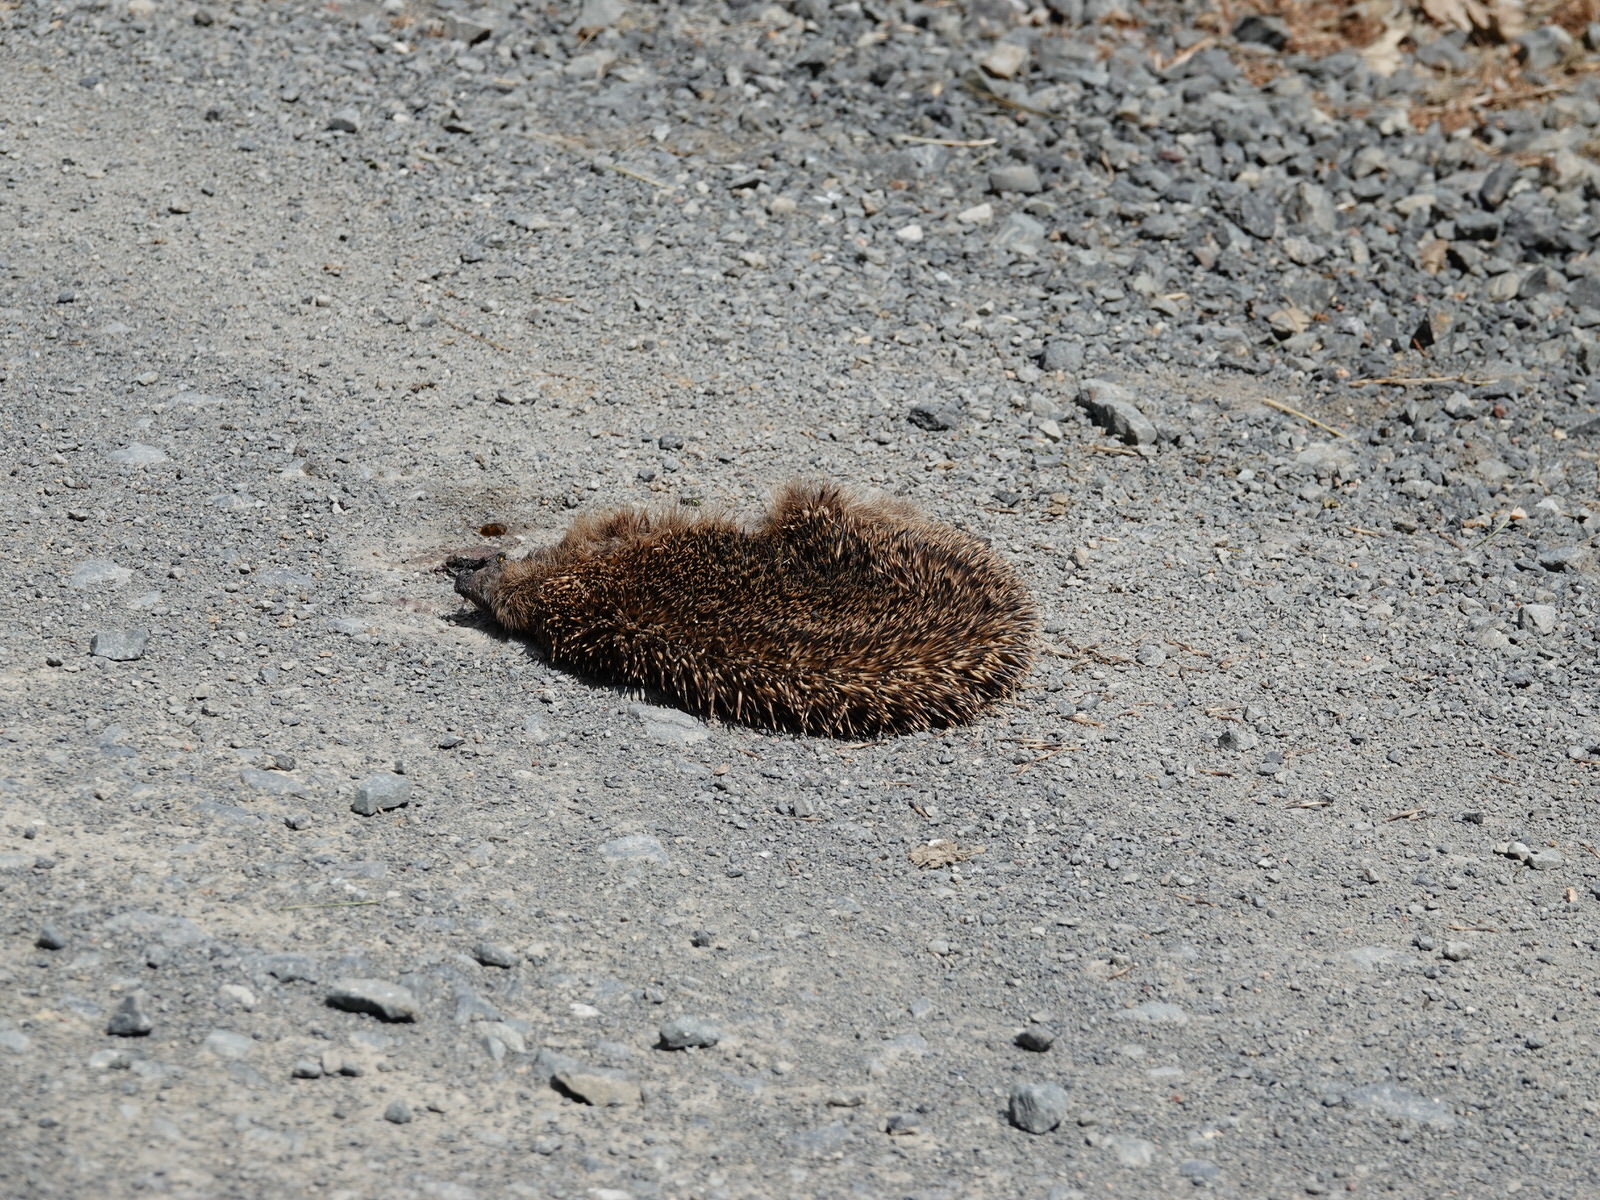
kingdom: Animalia
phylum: Chordata
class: Mammalia
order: Erinaceomorpha
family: Erinaceidae
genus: Erinaceus
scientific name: Erinaceus europaeus
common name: West european hedgehog
